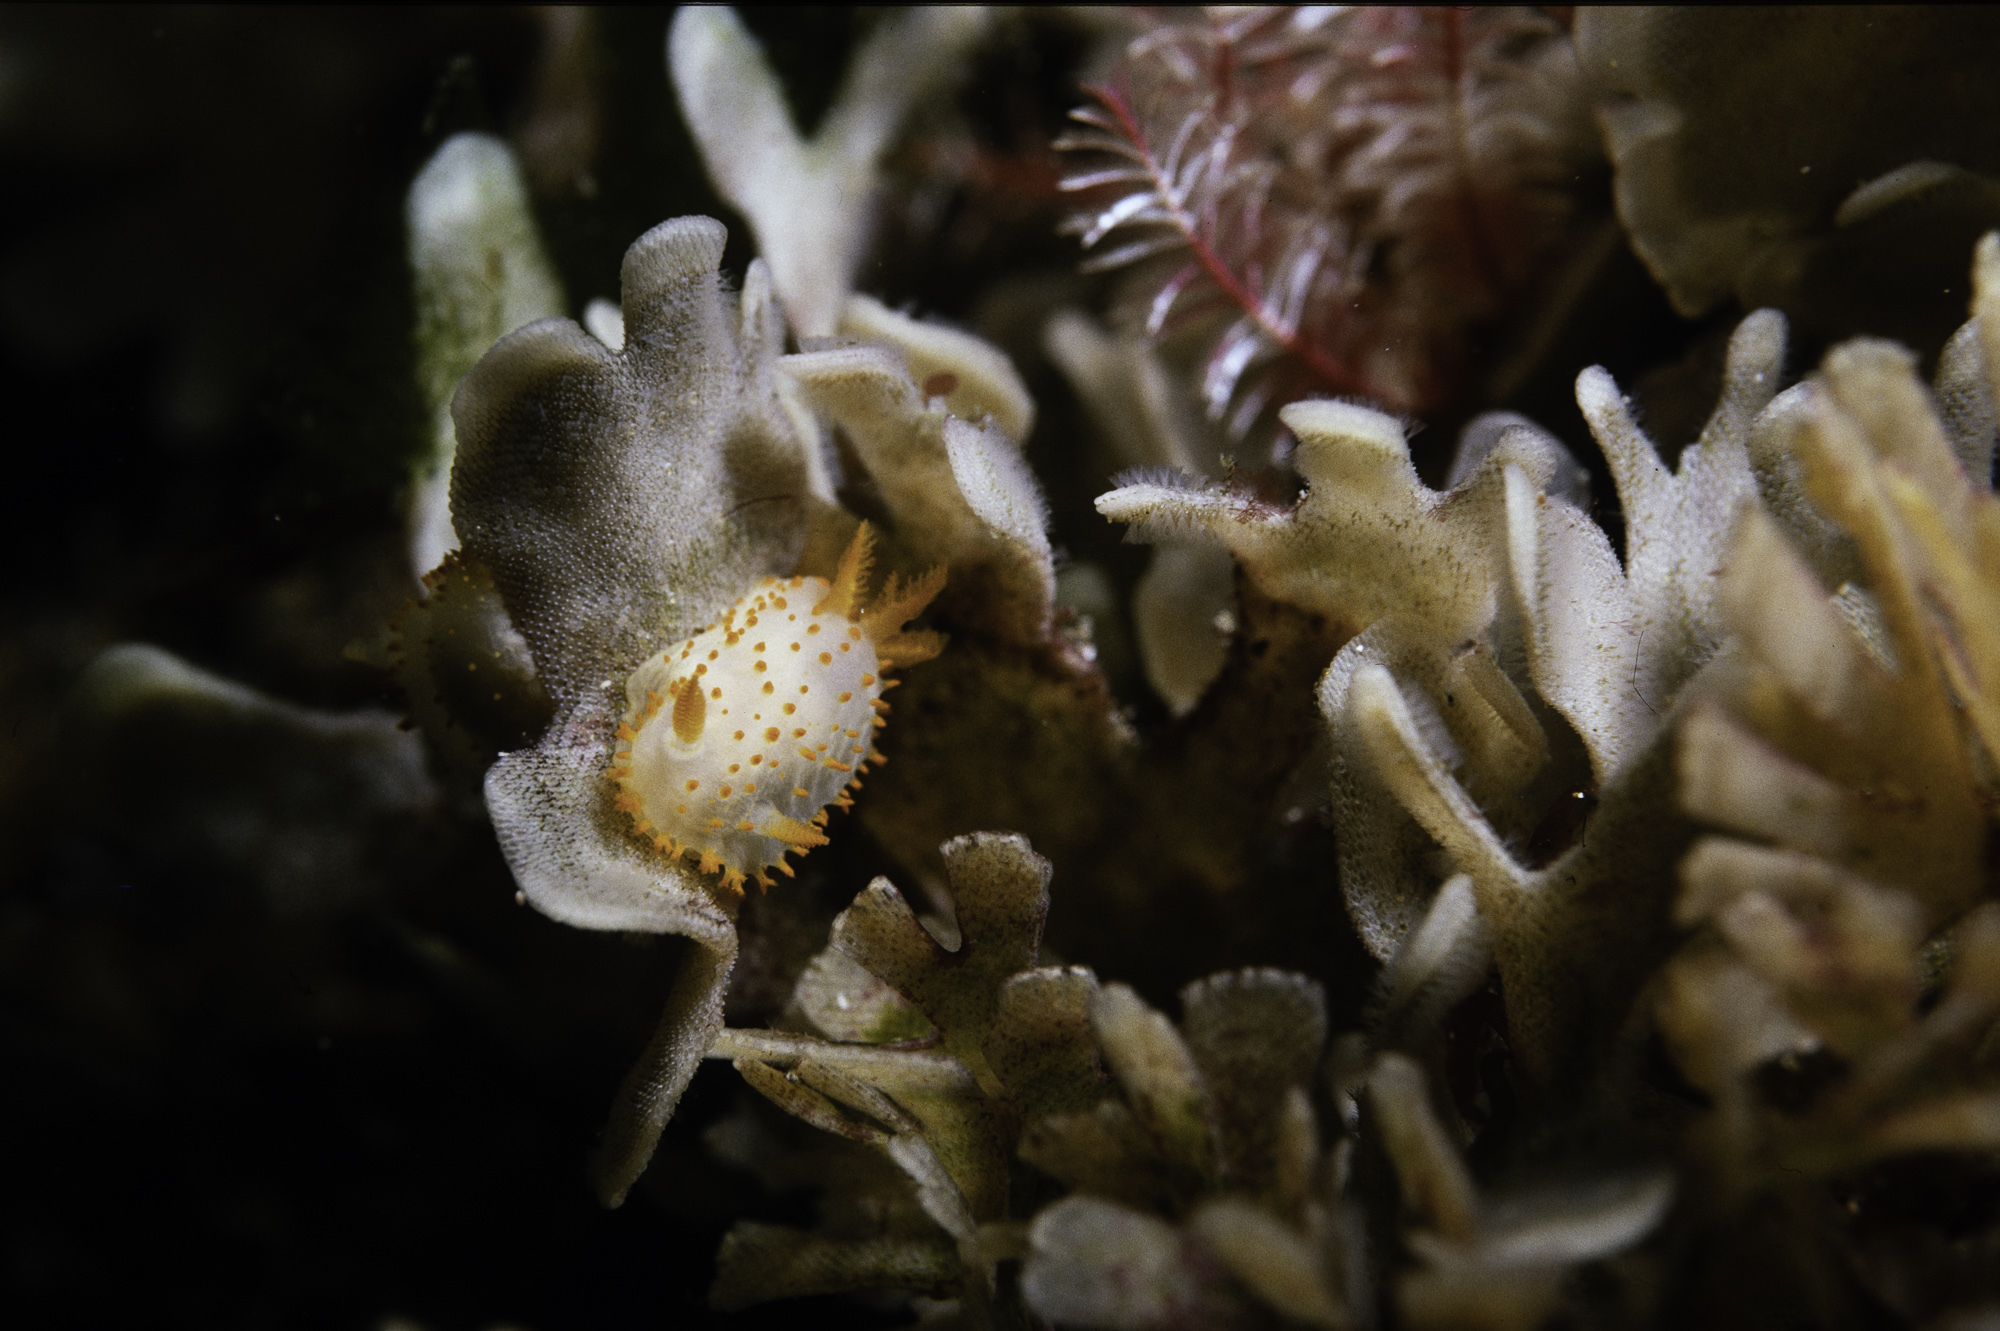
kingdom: Animalia
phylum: Mollusca
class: Gastropoda
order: Nudibranchia
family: Polyceridae
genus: Crimora
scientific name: Crimora papillata
